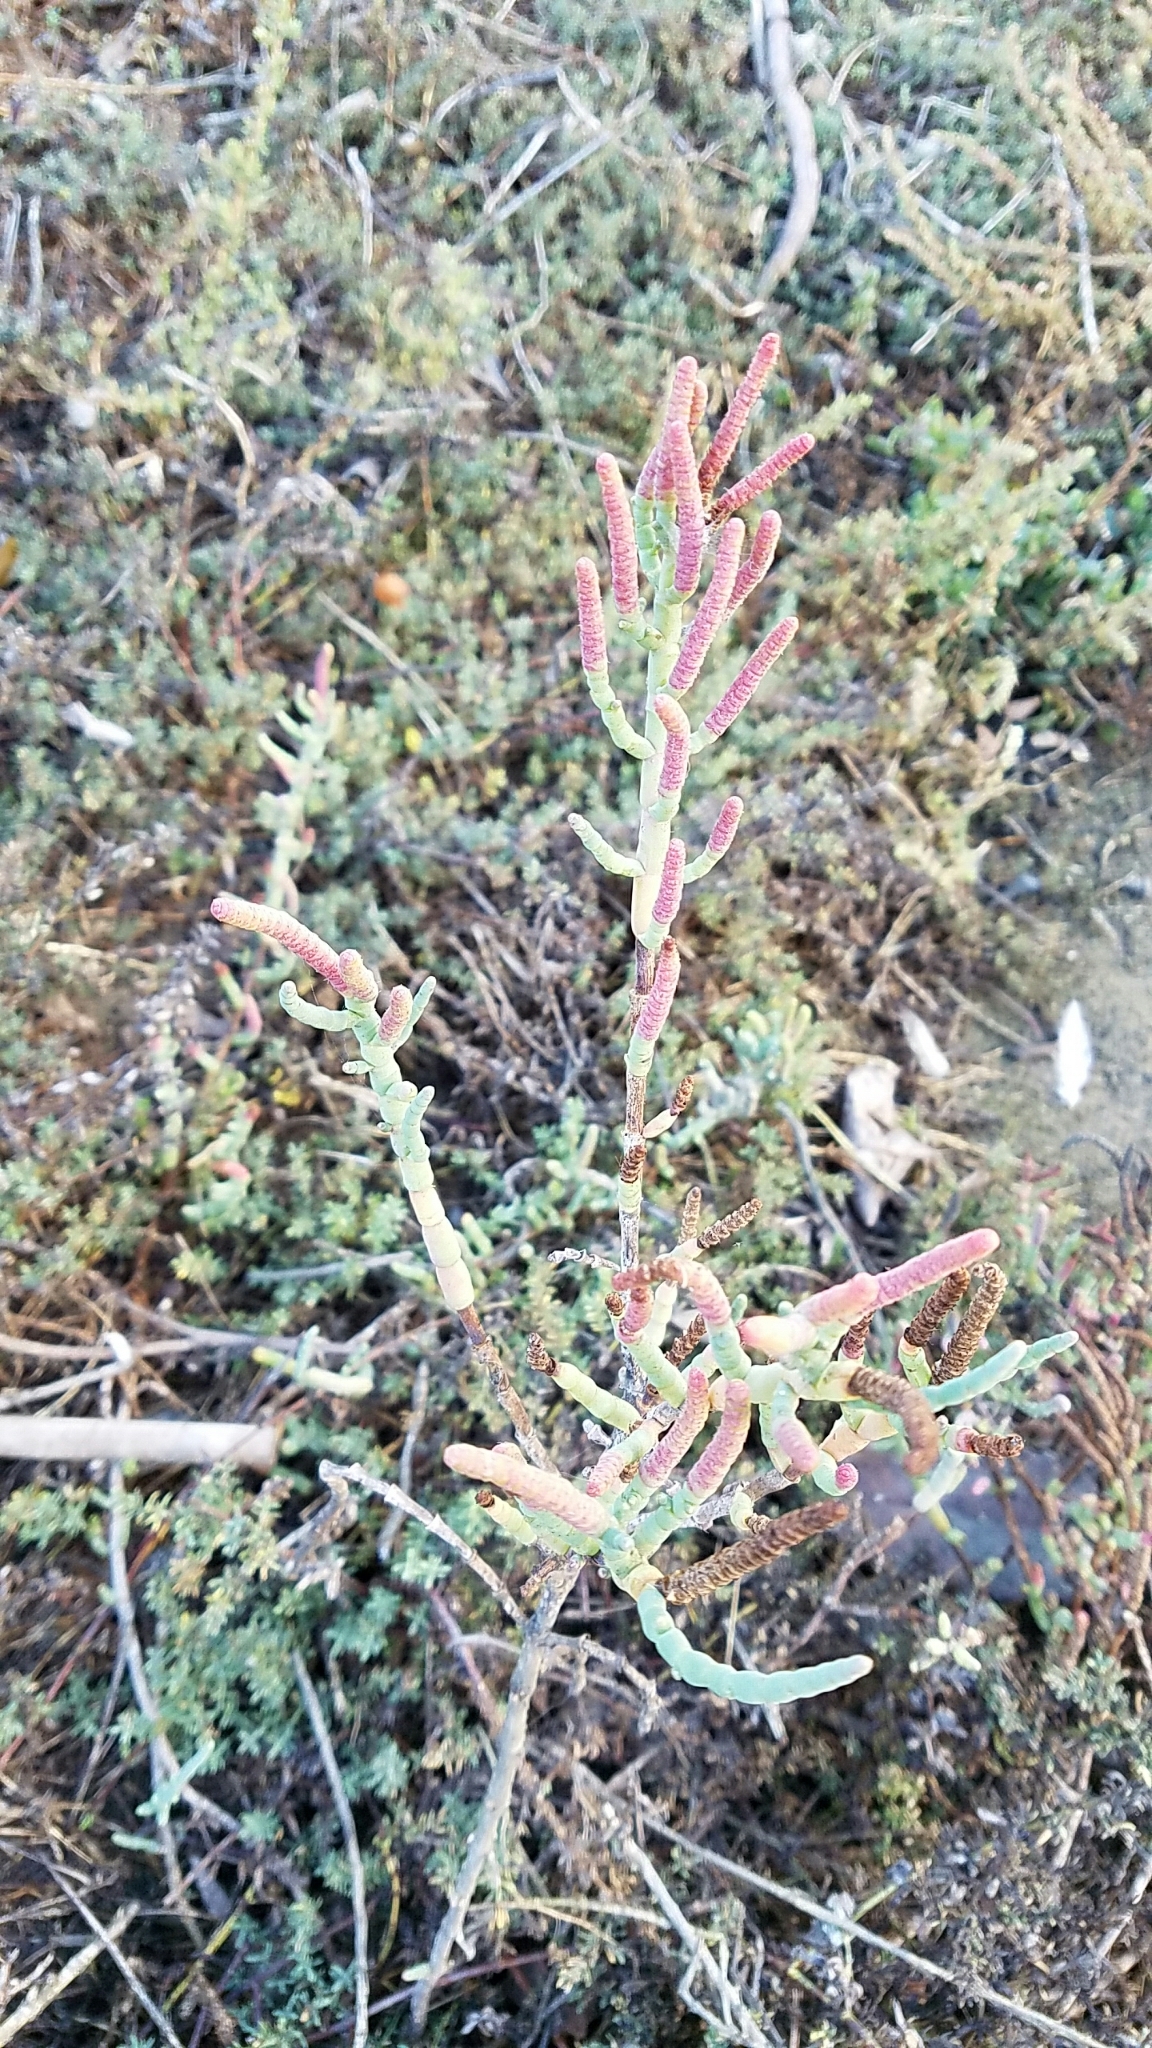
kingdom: Plantae
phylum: Tracheophyta
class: Magnoliopsida
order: Caryophyllales
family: Amaranthaceae
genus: Salicornia
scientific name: Salicornia pacifica
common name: Pacific glasswort
